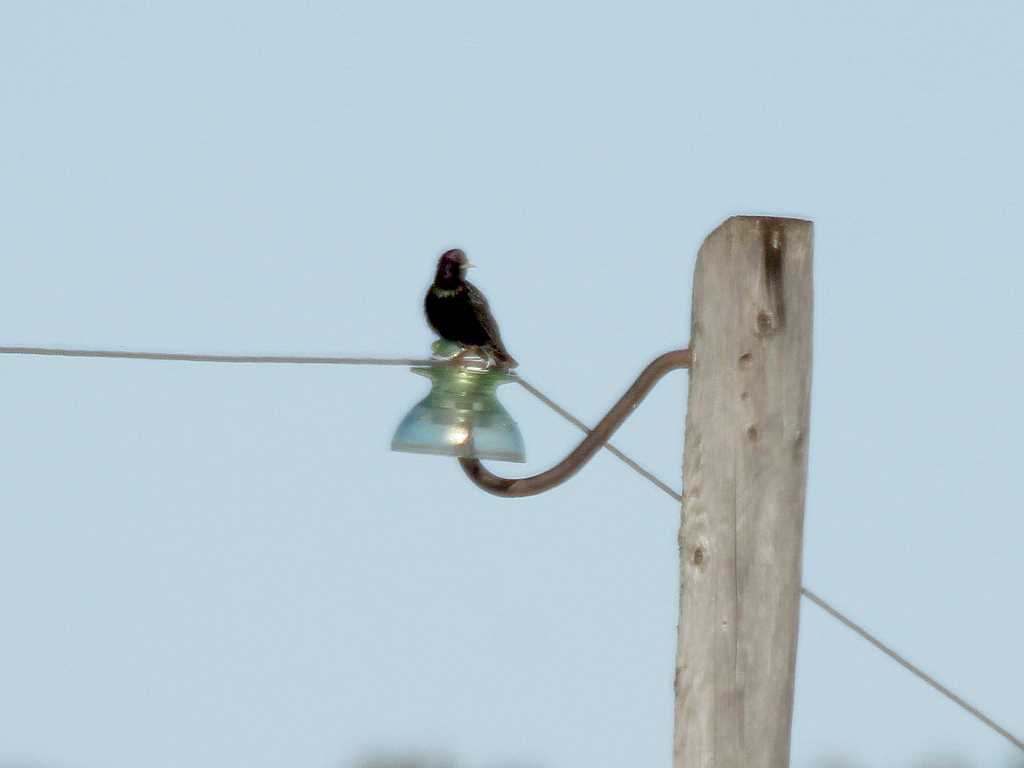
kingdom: Animalia
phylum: Chordata
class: Aves
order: Passeriformes
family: Sturnidae
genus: Sturnus
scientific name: Sturnus vulgaris
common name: Common starling
